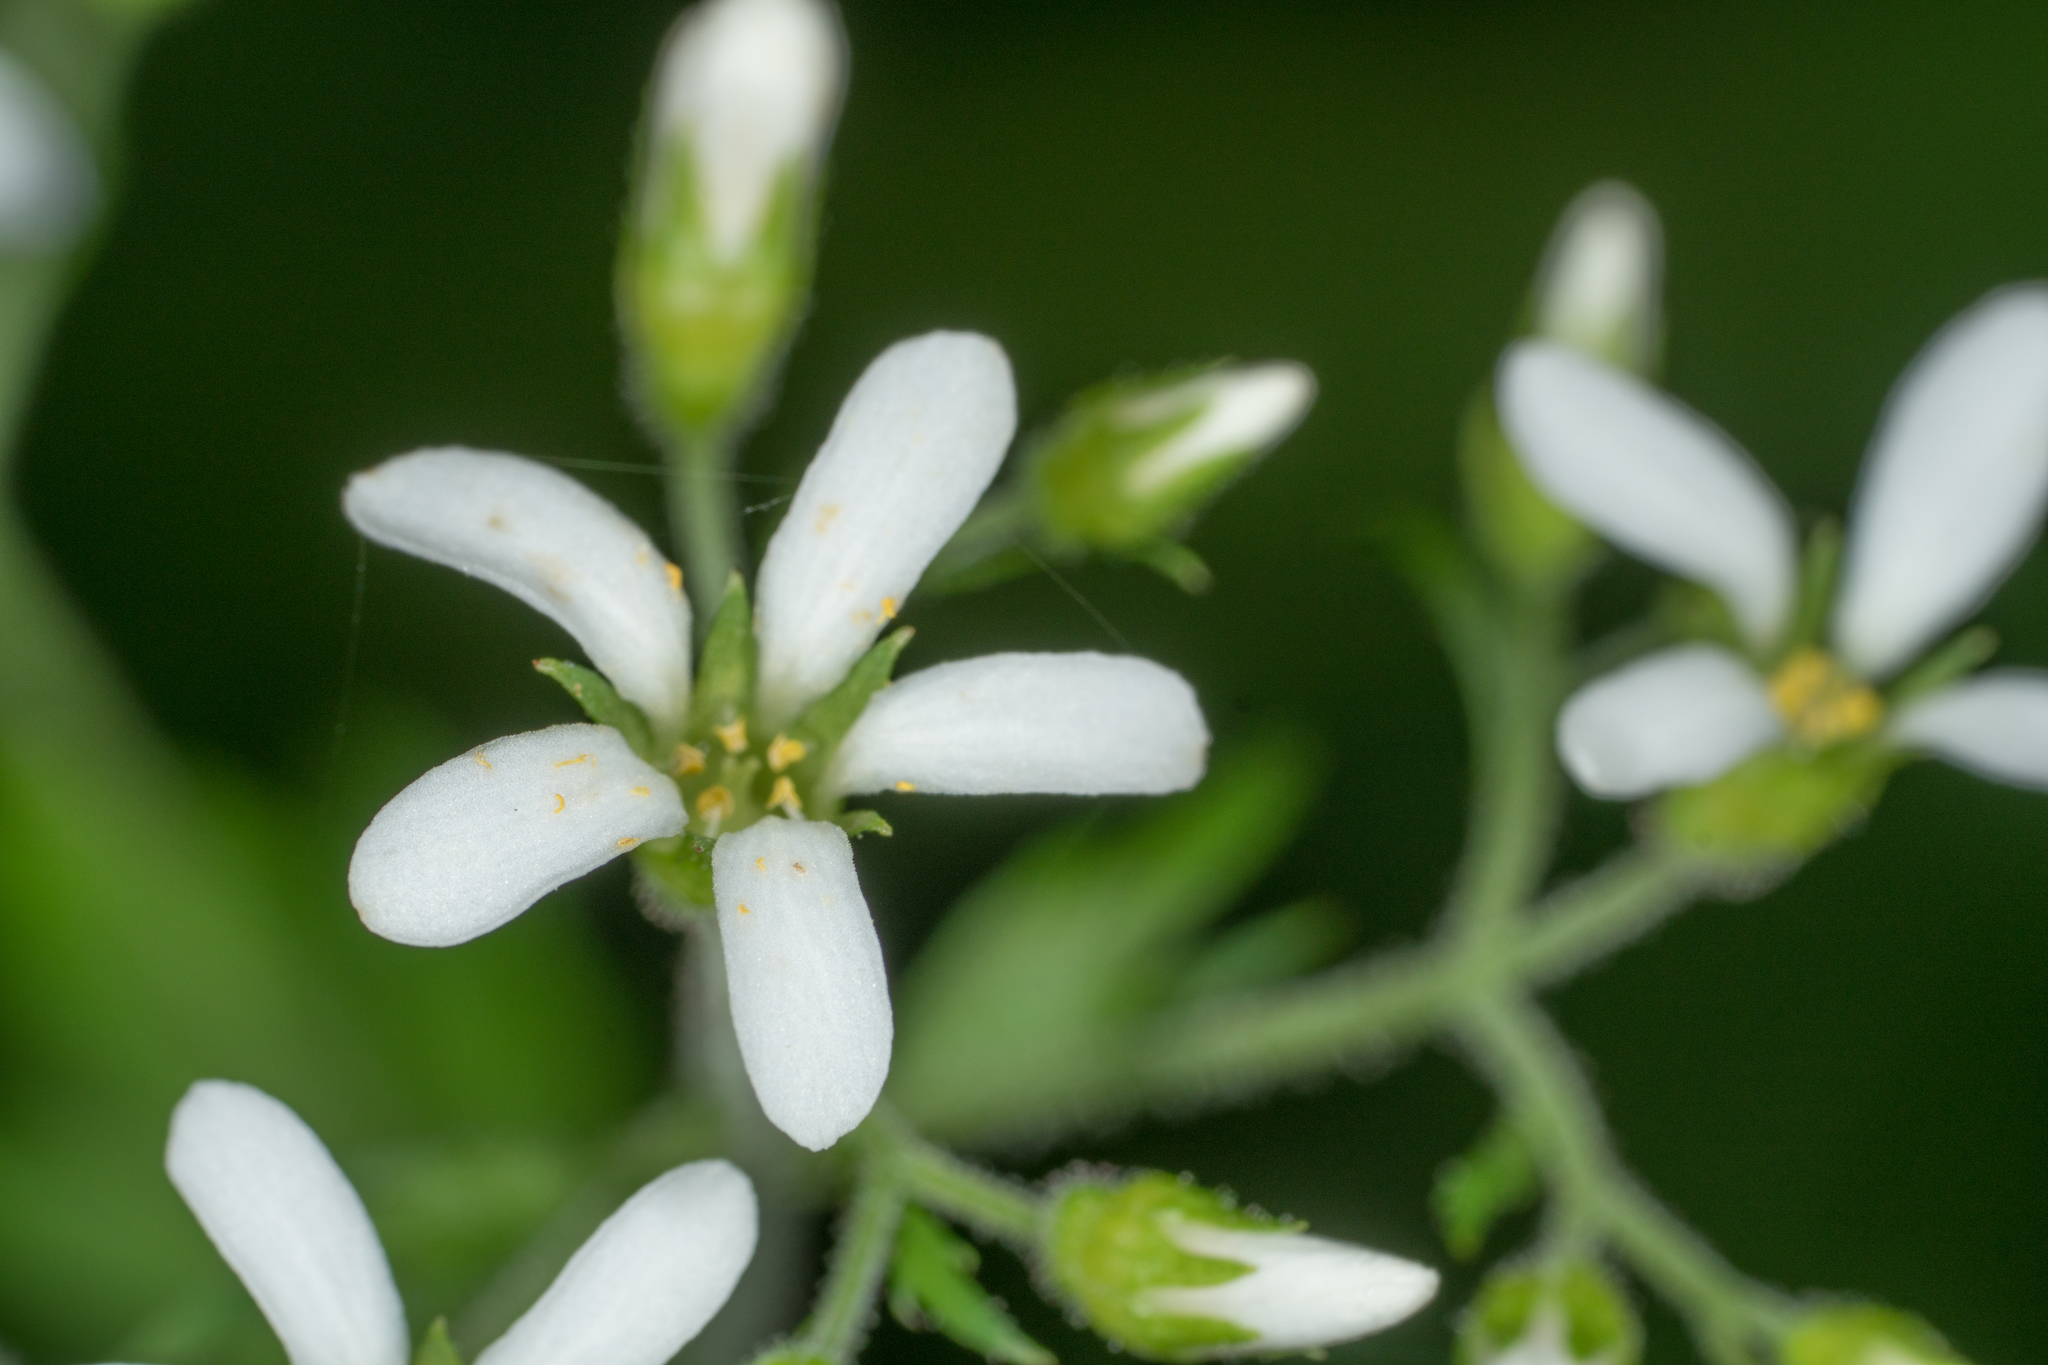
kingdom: Plantae
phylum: Tracheophyta
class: Magnoliopsida
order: Saxifragales
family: Saxifragaceae
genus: Boykinia
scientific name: Boykinia occidentalis
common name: Coast boykinia
